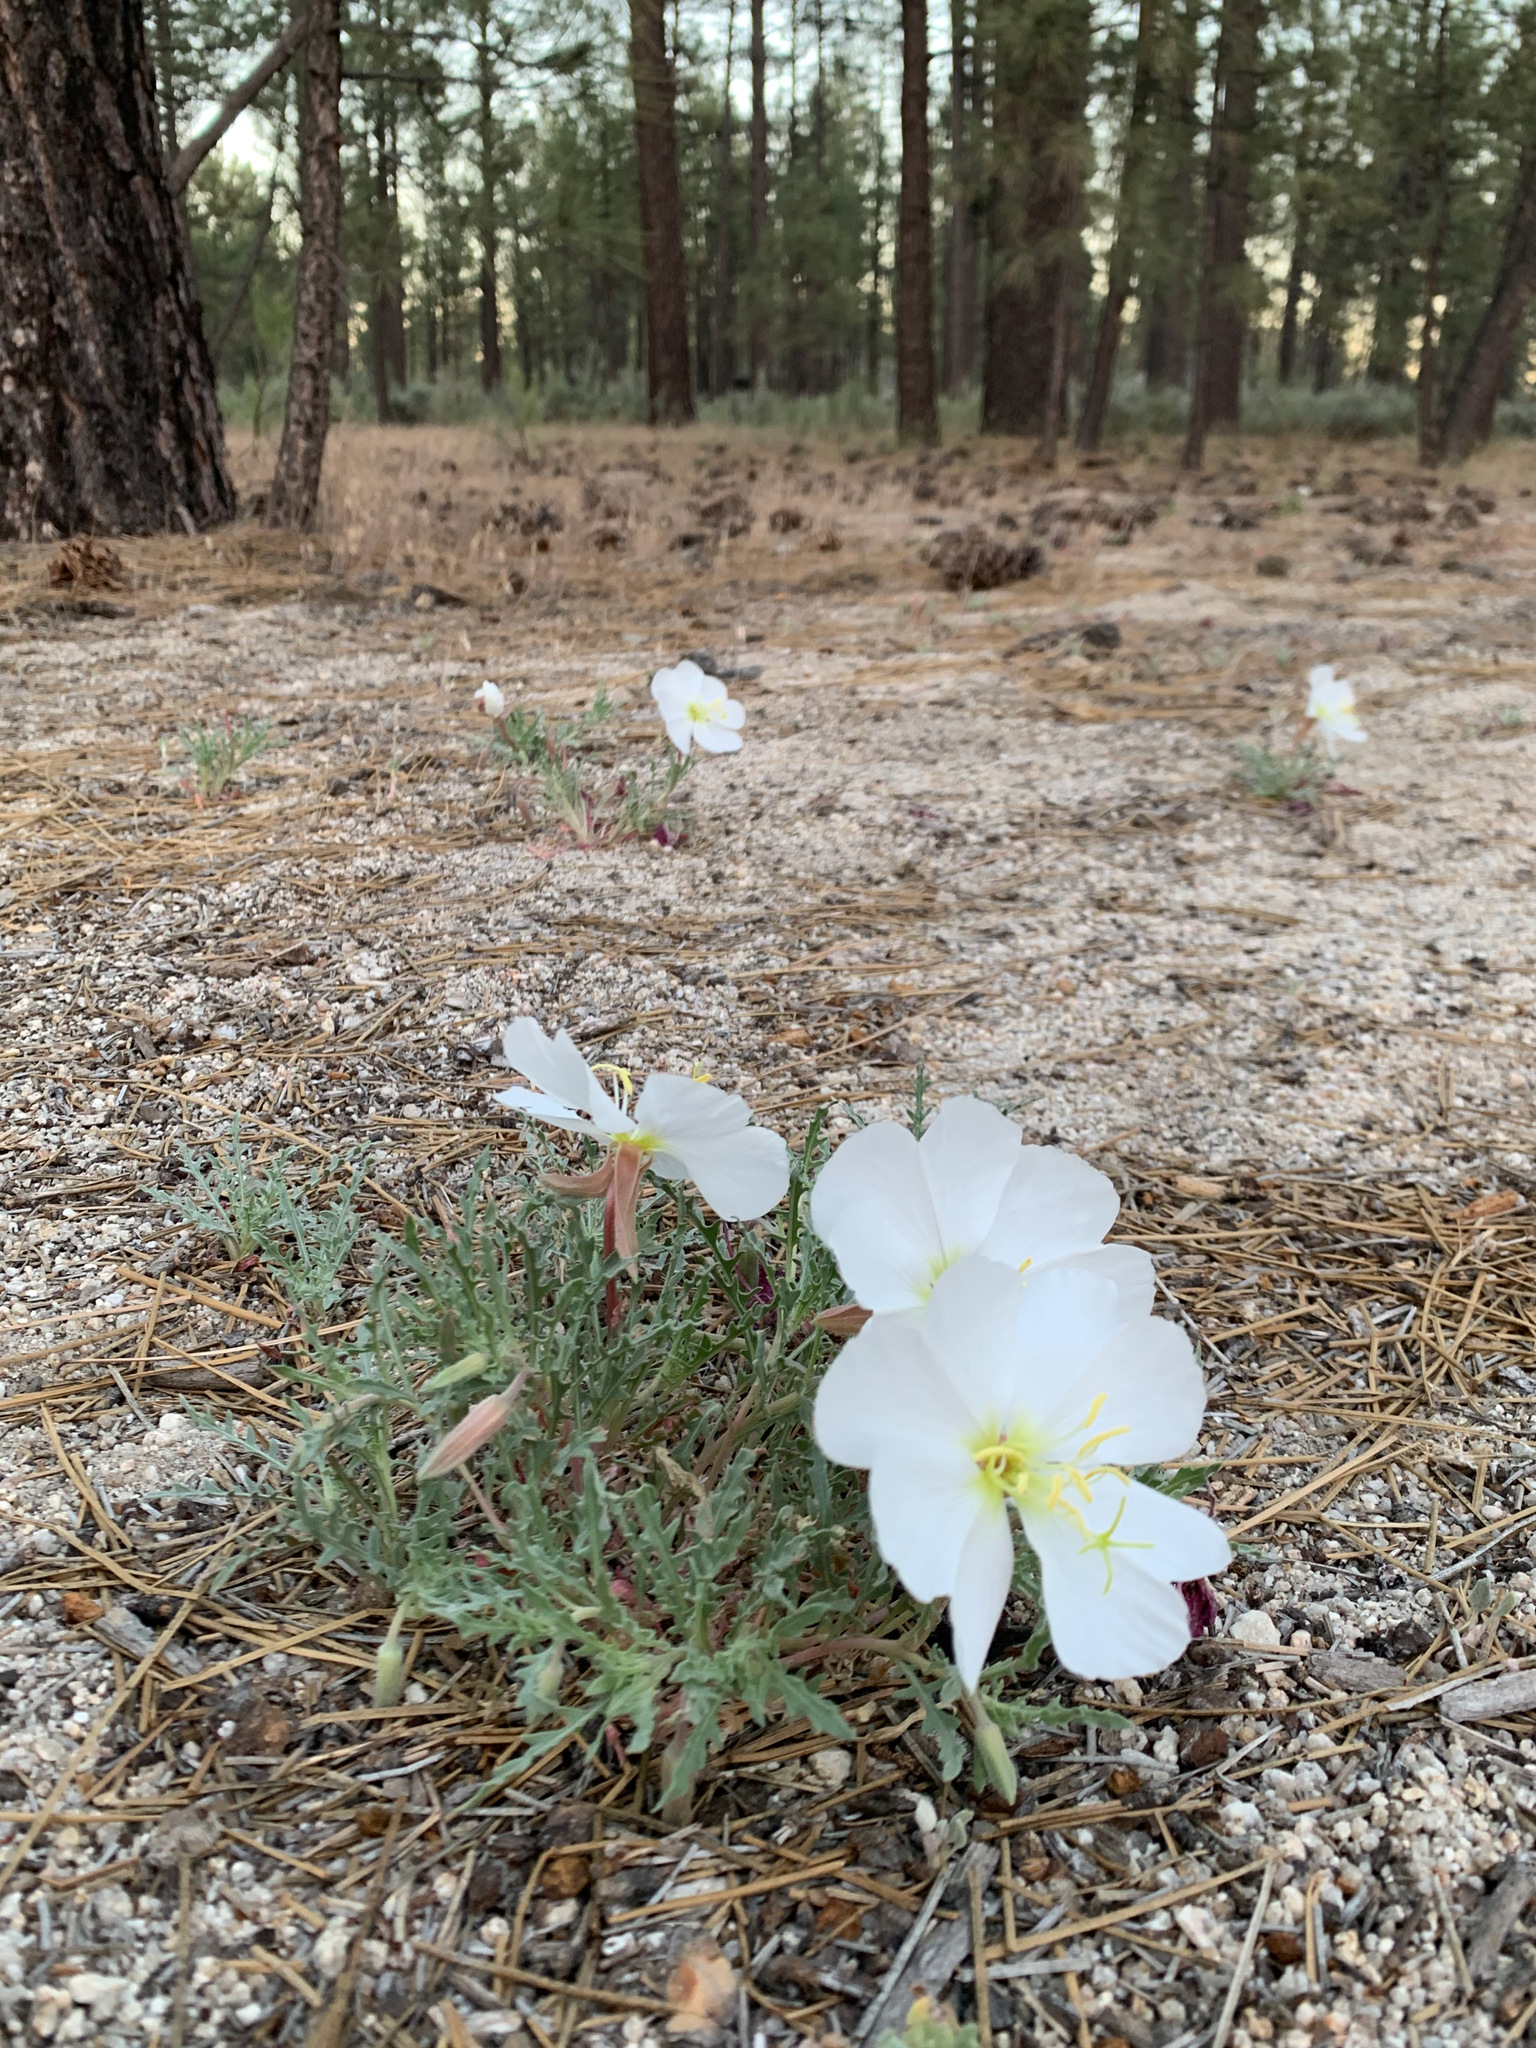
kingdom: Plantae
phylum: Tracheophyta
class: Magnoliopsida
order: Myrtales
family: Onagraceae
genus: Oenothera
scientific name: Oenothera avita
